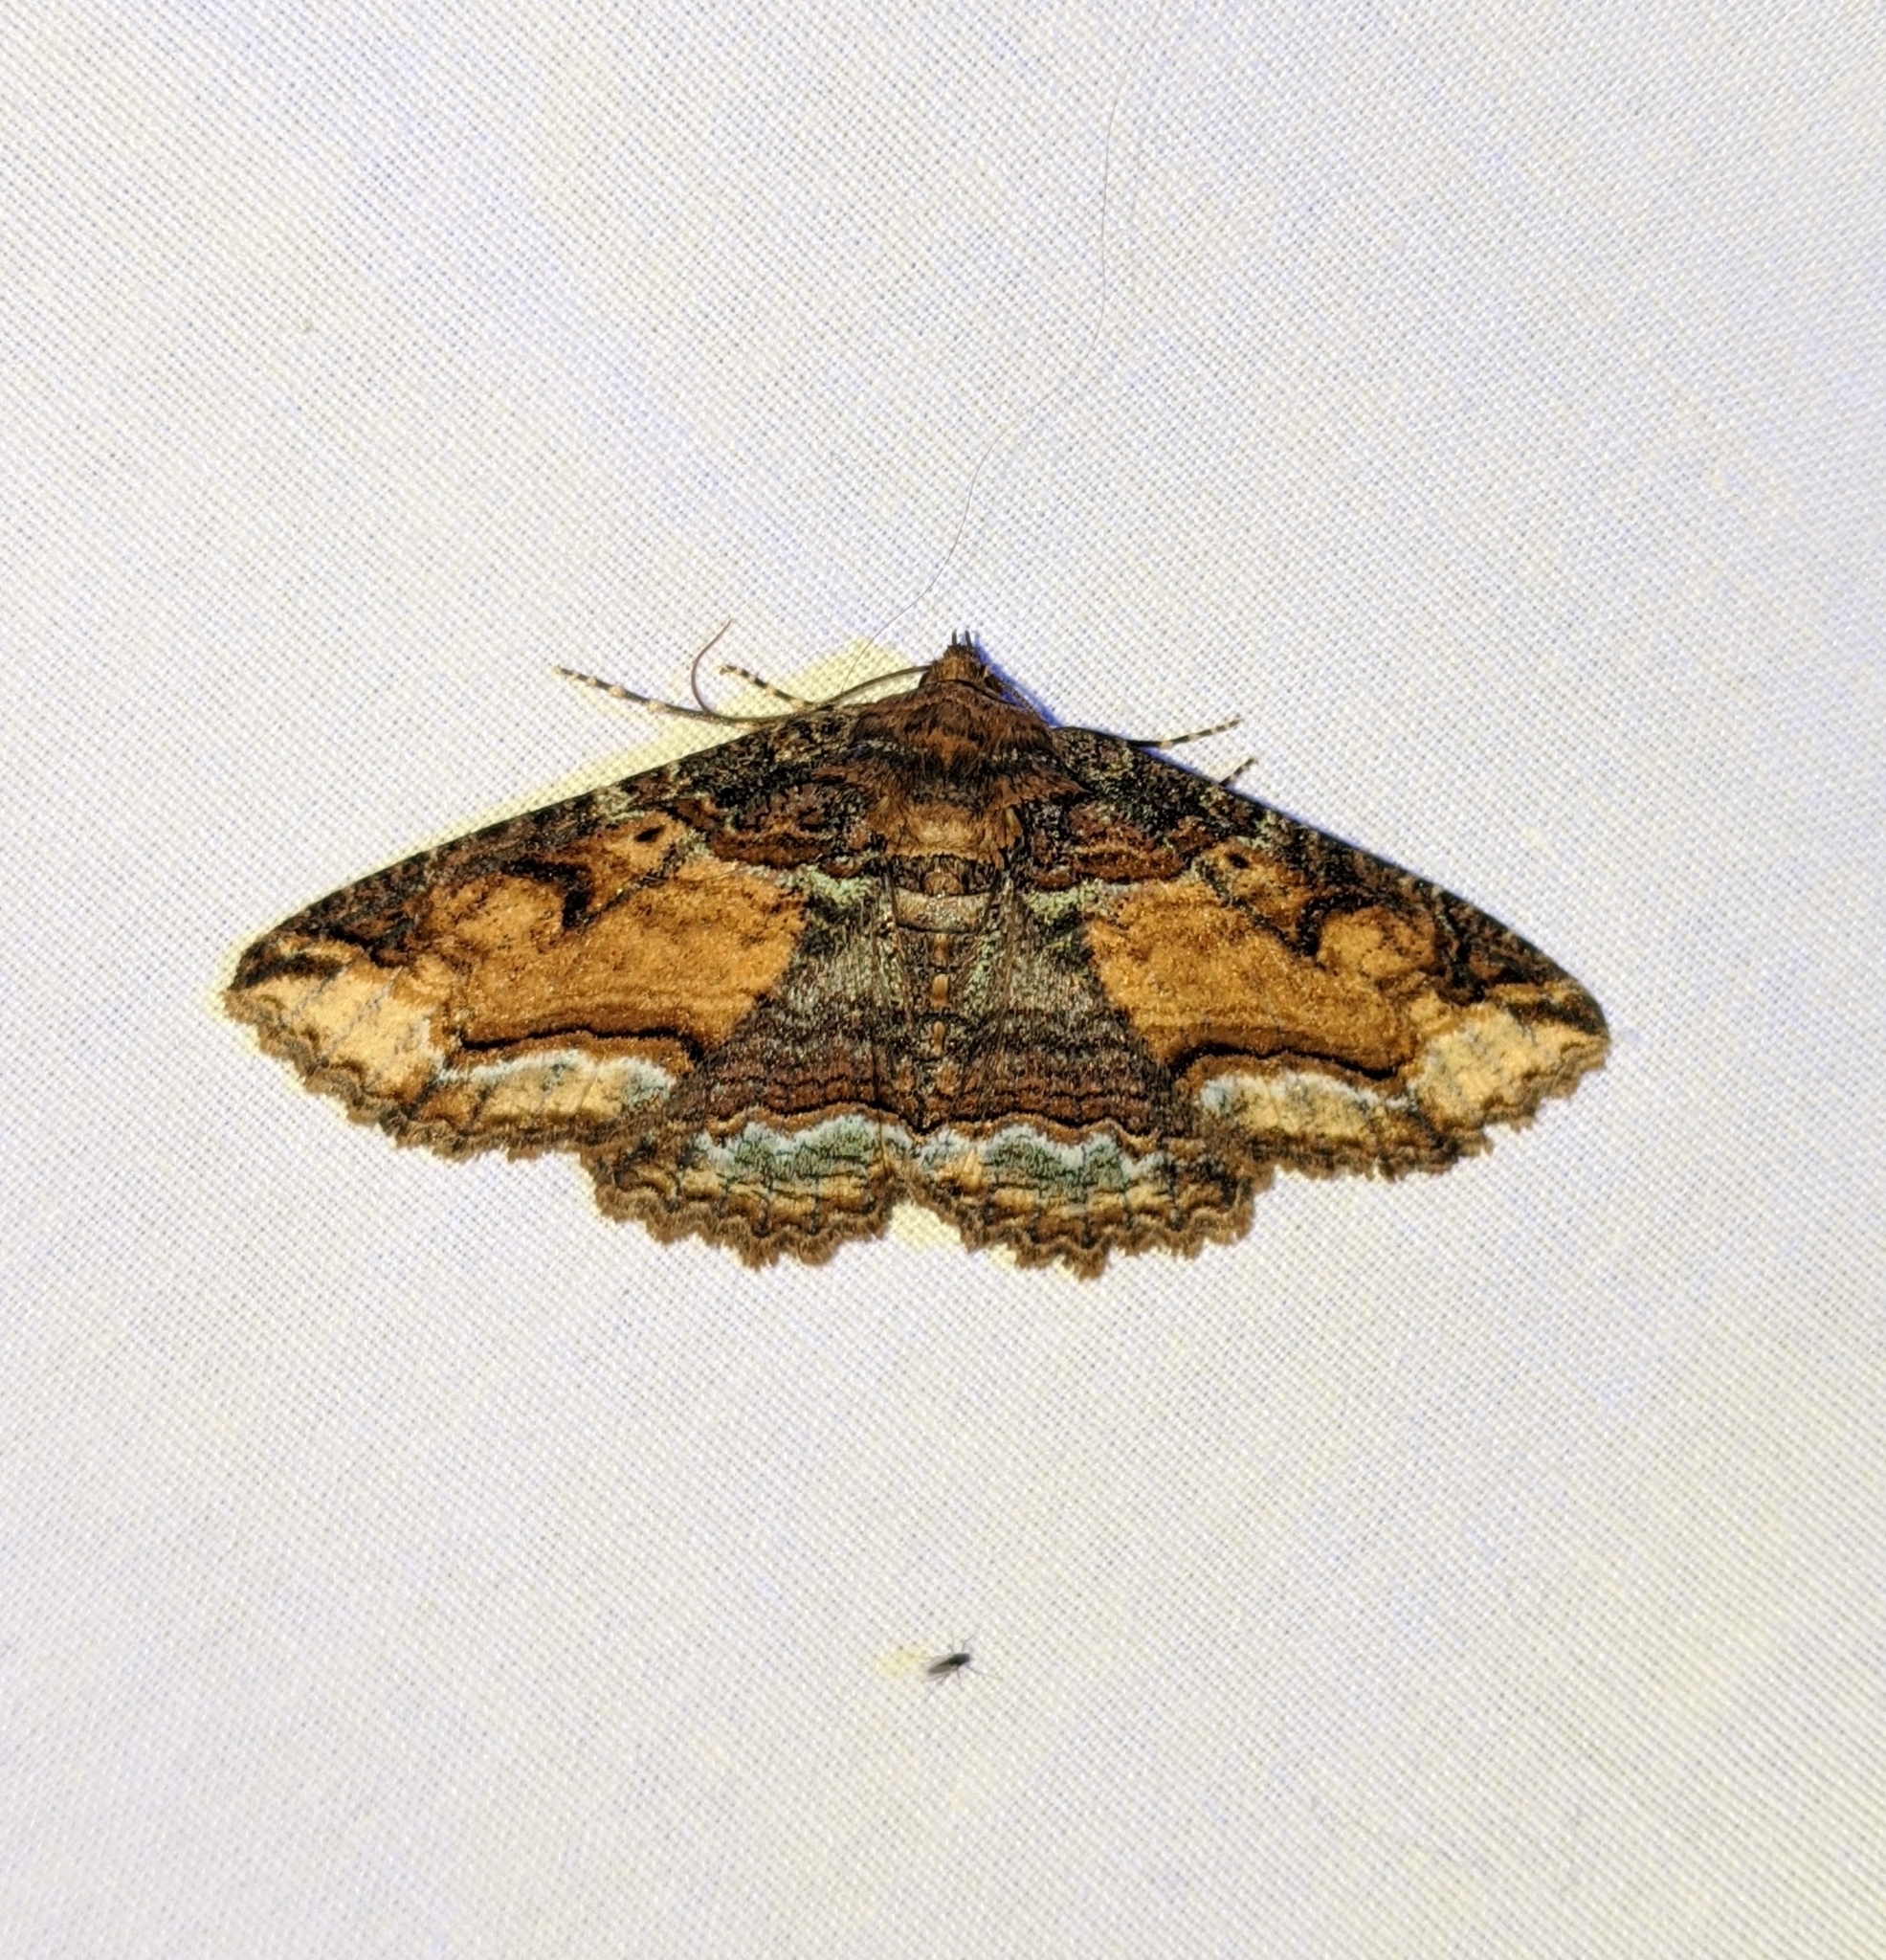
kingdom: Animalia
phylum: Arthropoda
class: Insecta
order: Lepidoptera
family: Erebidae
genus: Zale
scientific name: Zale minerea
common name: Colorful zale moth
